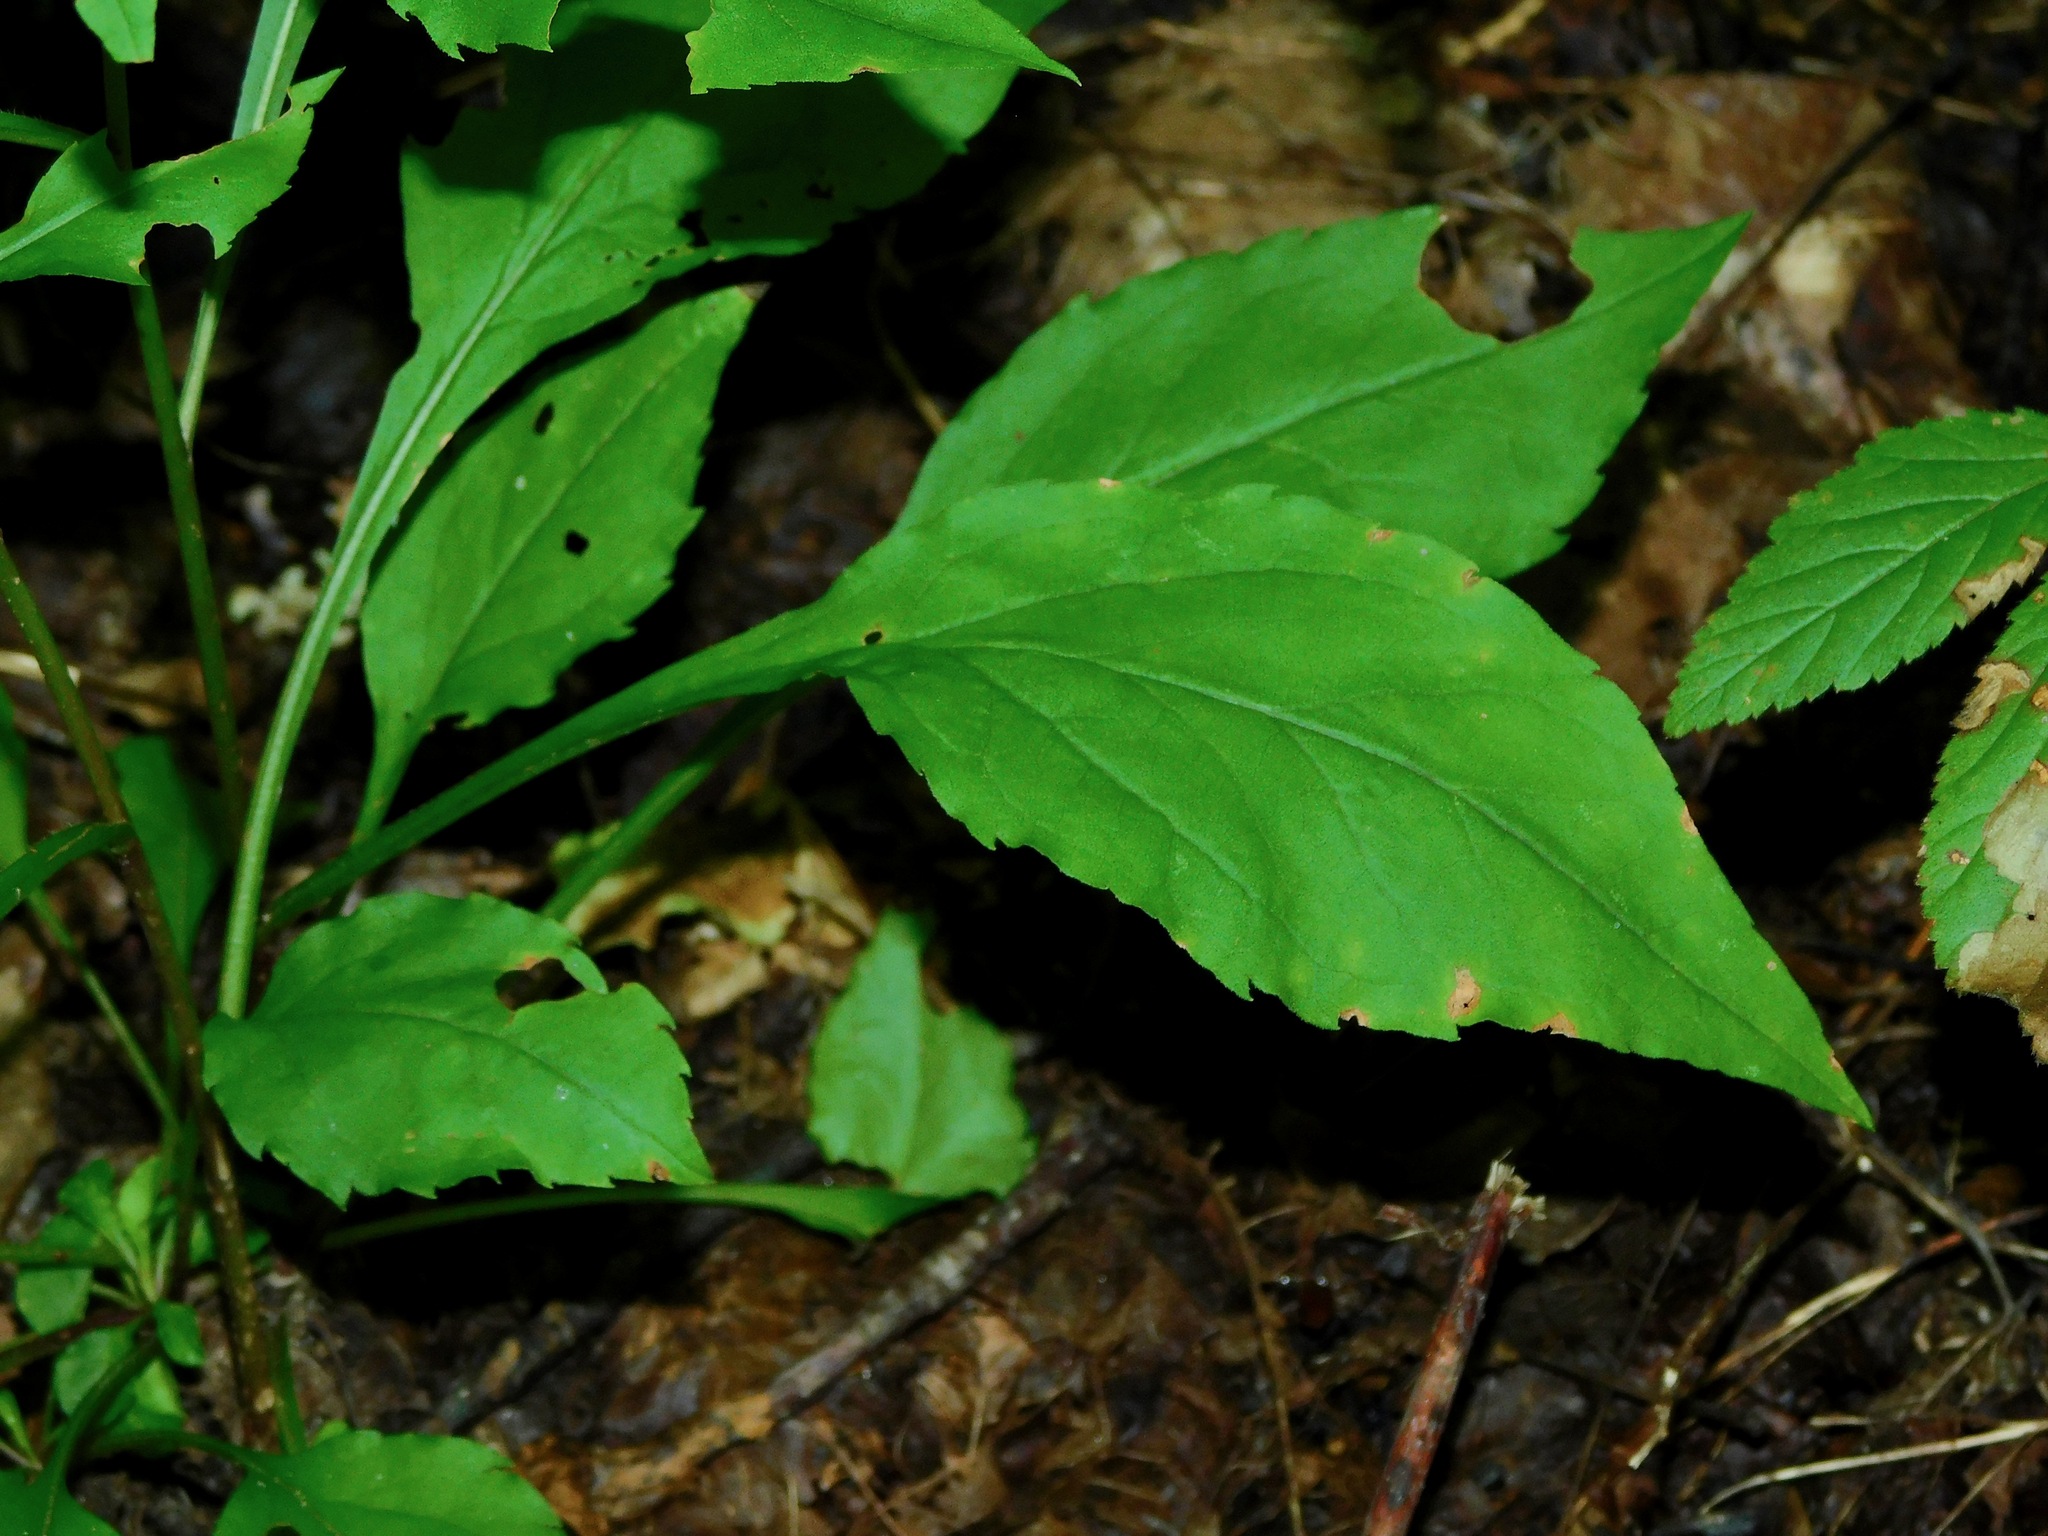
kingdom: Plantae
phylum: Tracheophyta
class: Magnoliopsida
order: Asterales
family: Asteraceae
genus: Solidago
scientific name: Solidago flexicaulis
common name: Zig-zag goldenrod
